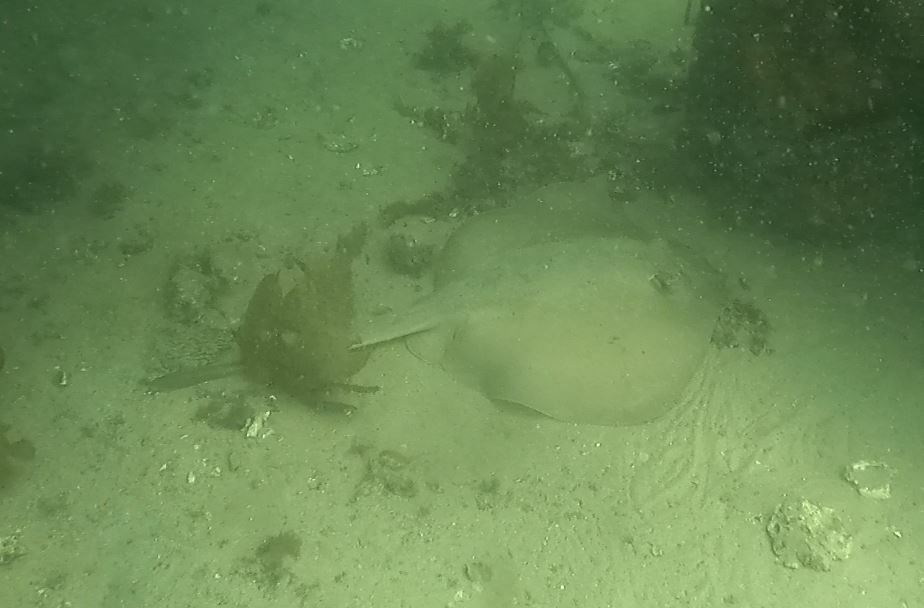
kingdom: Animalia
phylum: Chordata
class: Elasmobranchii
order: Myliobatiformes
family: Urolophidae
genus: Trygonoptera
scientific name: Trygonoptera testacea
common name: Common stingaree
